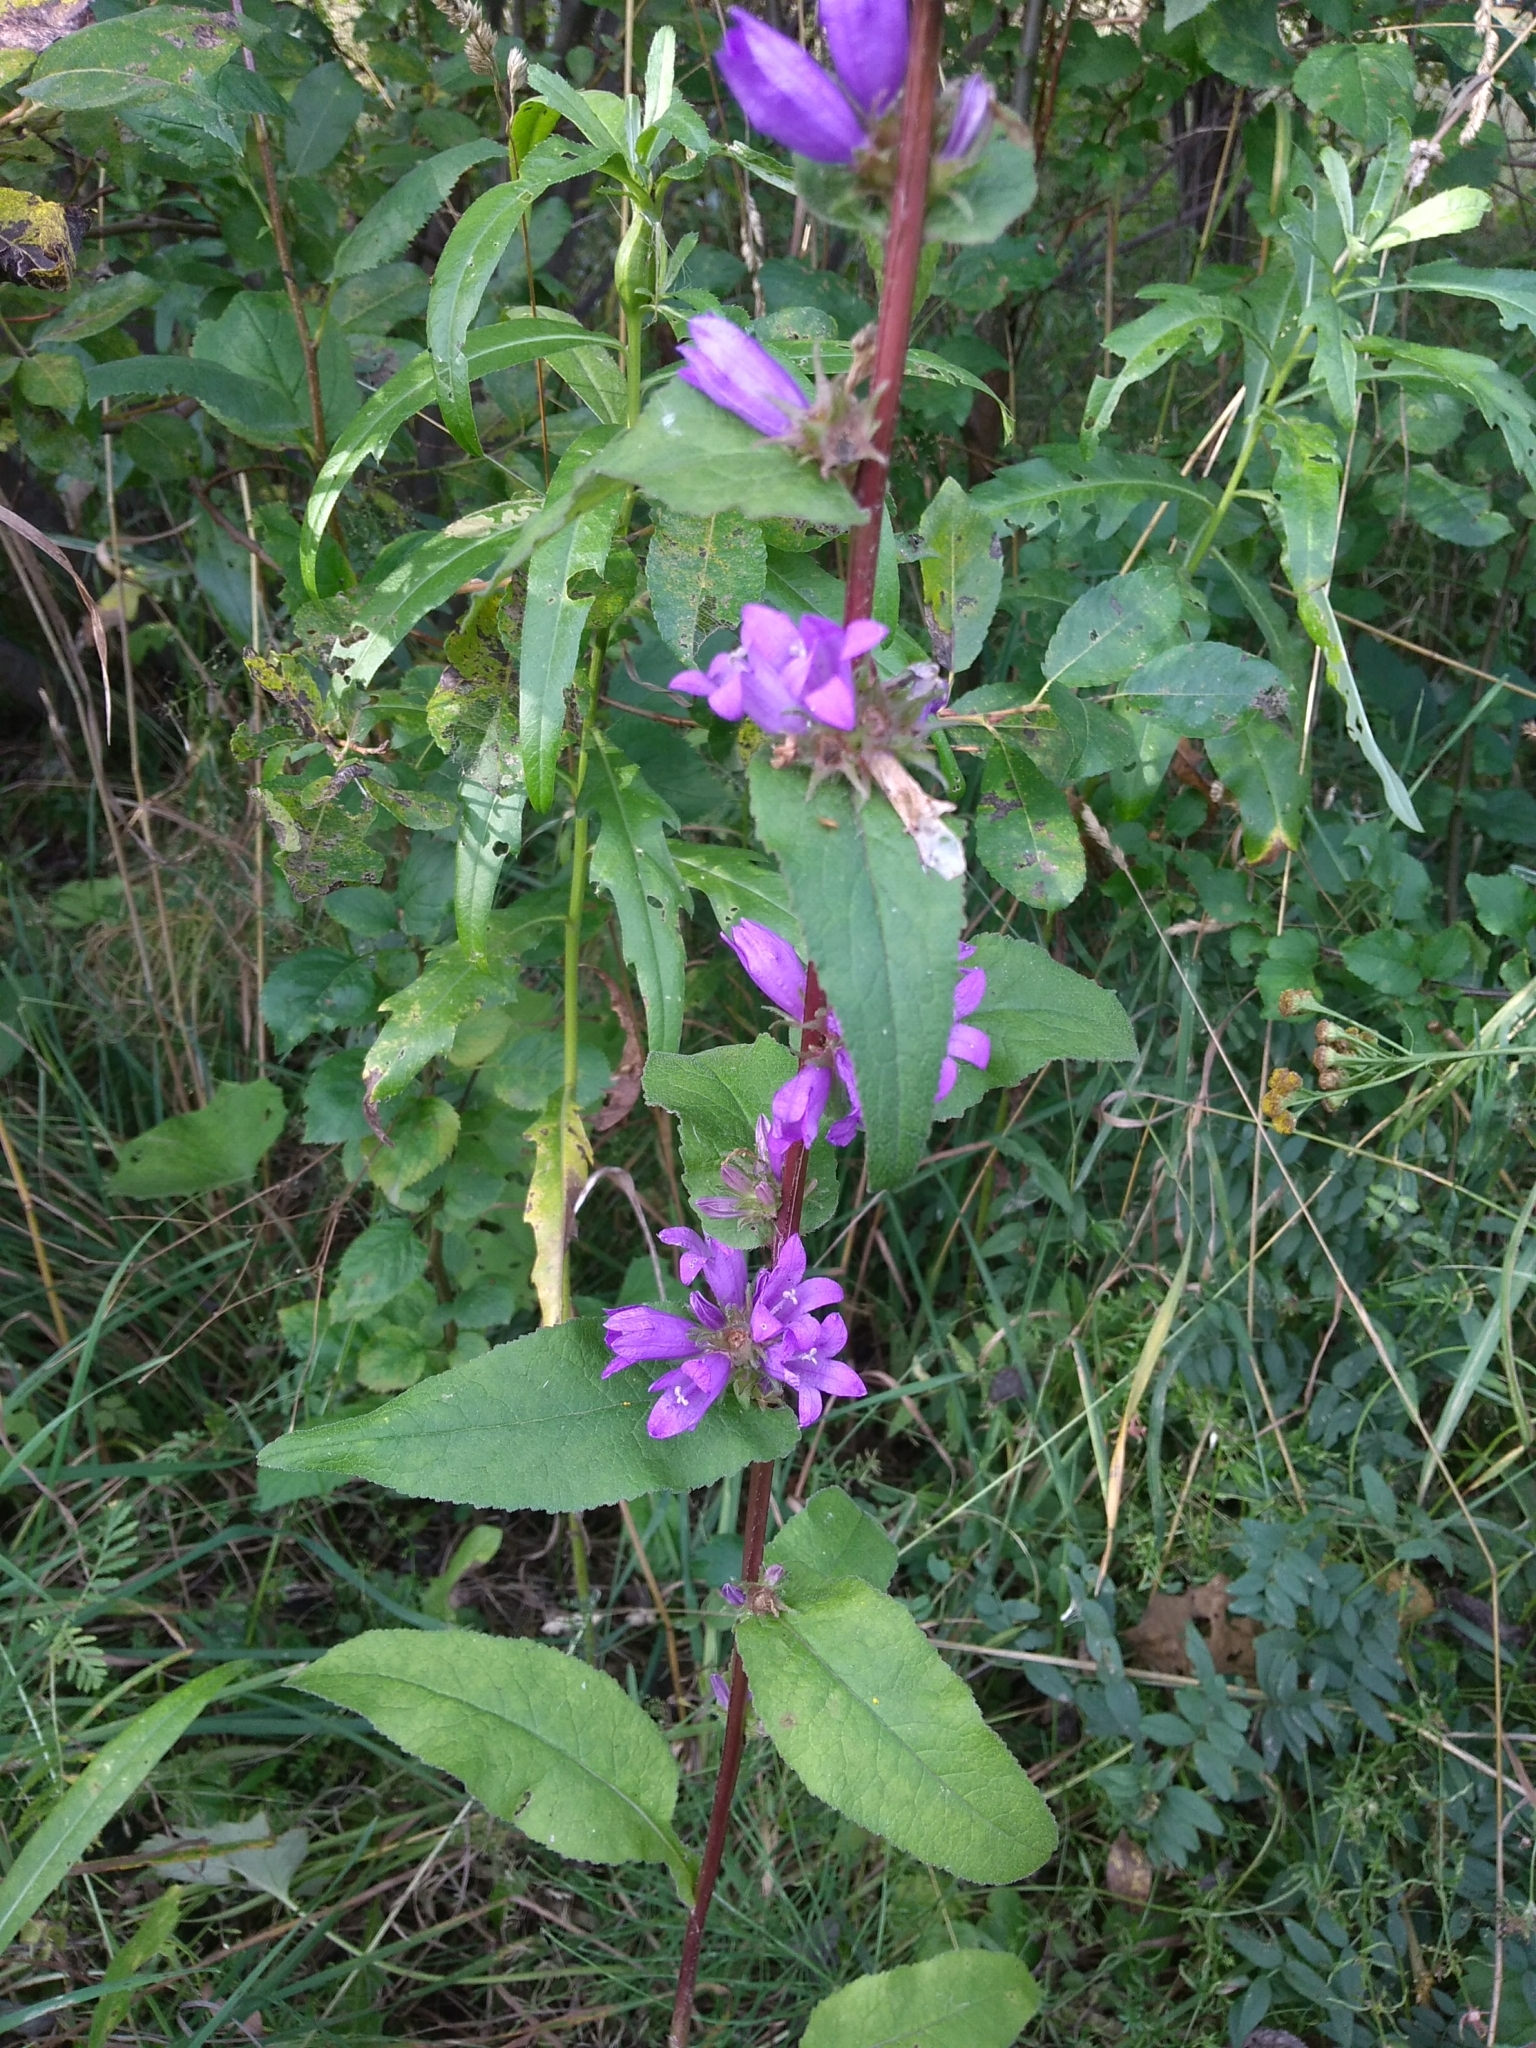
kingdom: Plantae
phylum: Tracheophyta
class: Magnoliopsida
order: Asterales
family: Campanulaceae
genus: Campanula
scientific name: Campanula glomerata
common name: Clustered bellflower
